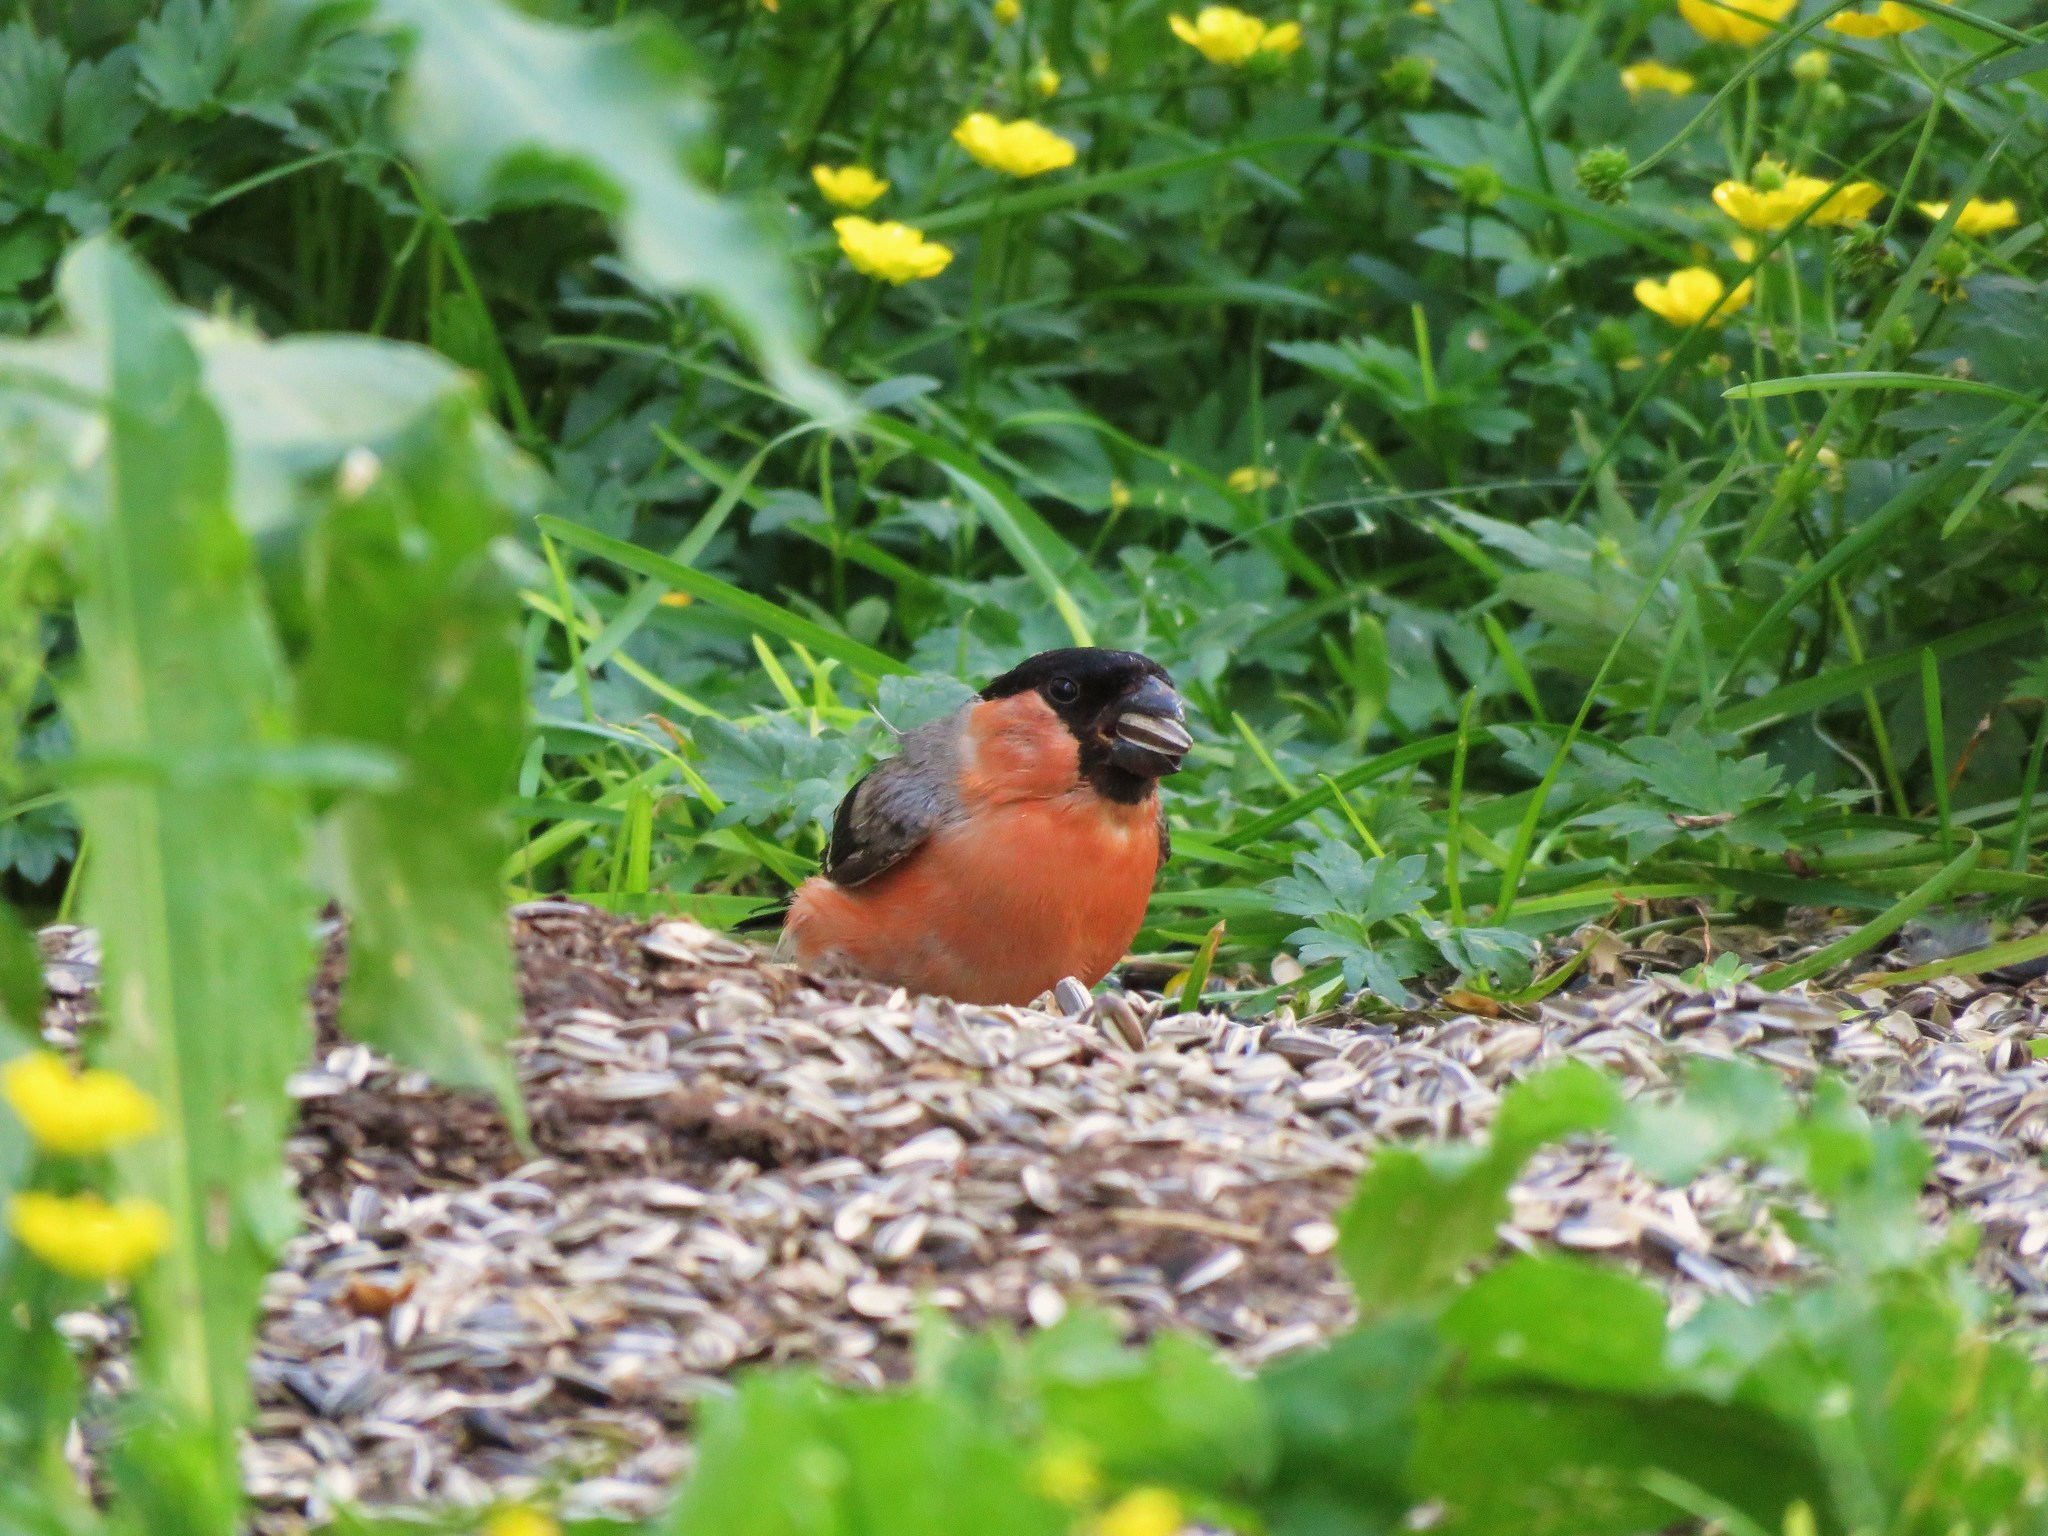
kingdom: Animalia
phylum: Chordata
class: Aves
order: Passeriformes
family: Fringillidae
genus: Pyrrhula
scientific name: Pyrrhula pyrrhula
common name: Eurasian bullfinch
